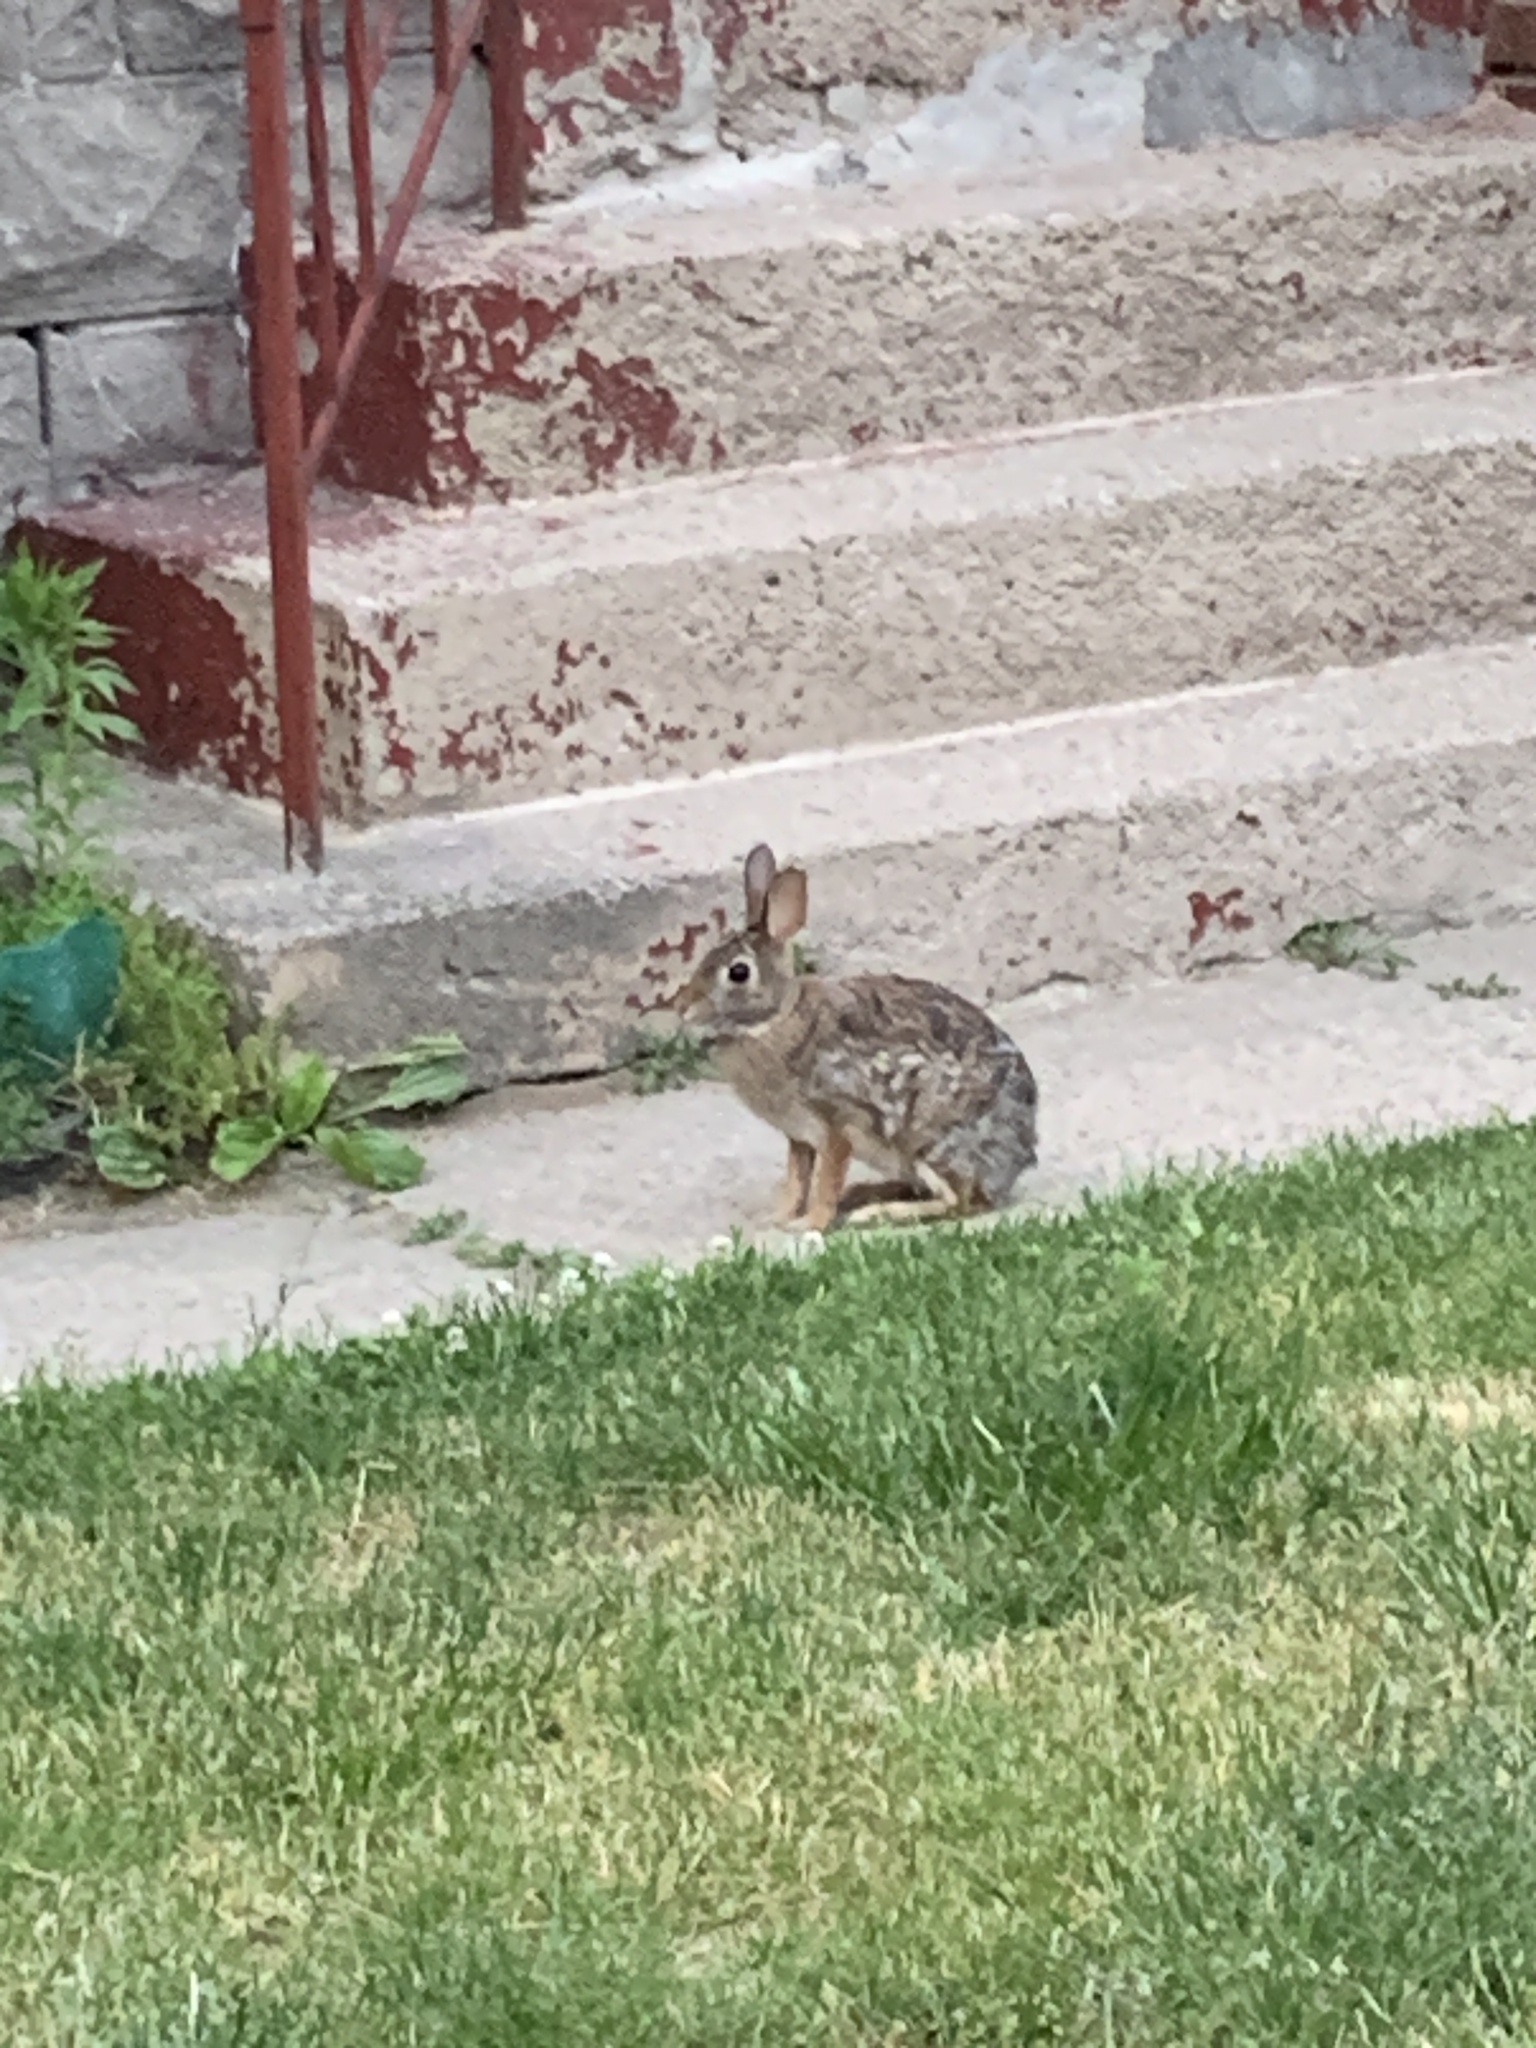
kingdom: Animalia
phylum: Chordata
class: Mammalia
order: Lagomorpha
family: Leporidae
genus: Sylvilagus
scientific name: Sylvilagus floridanus
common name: Eastern cottontail
